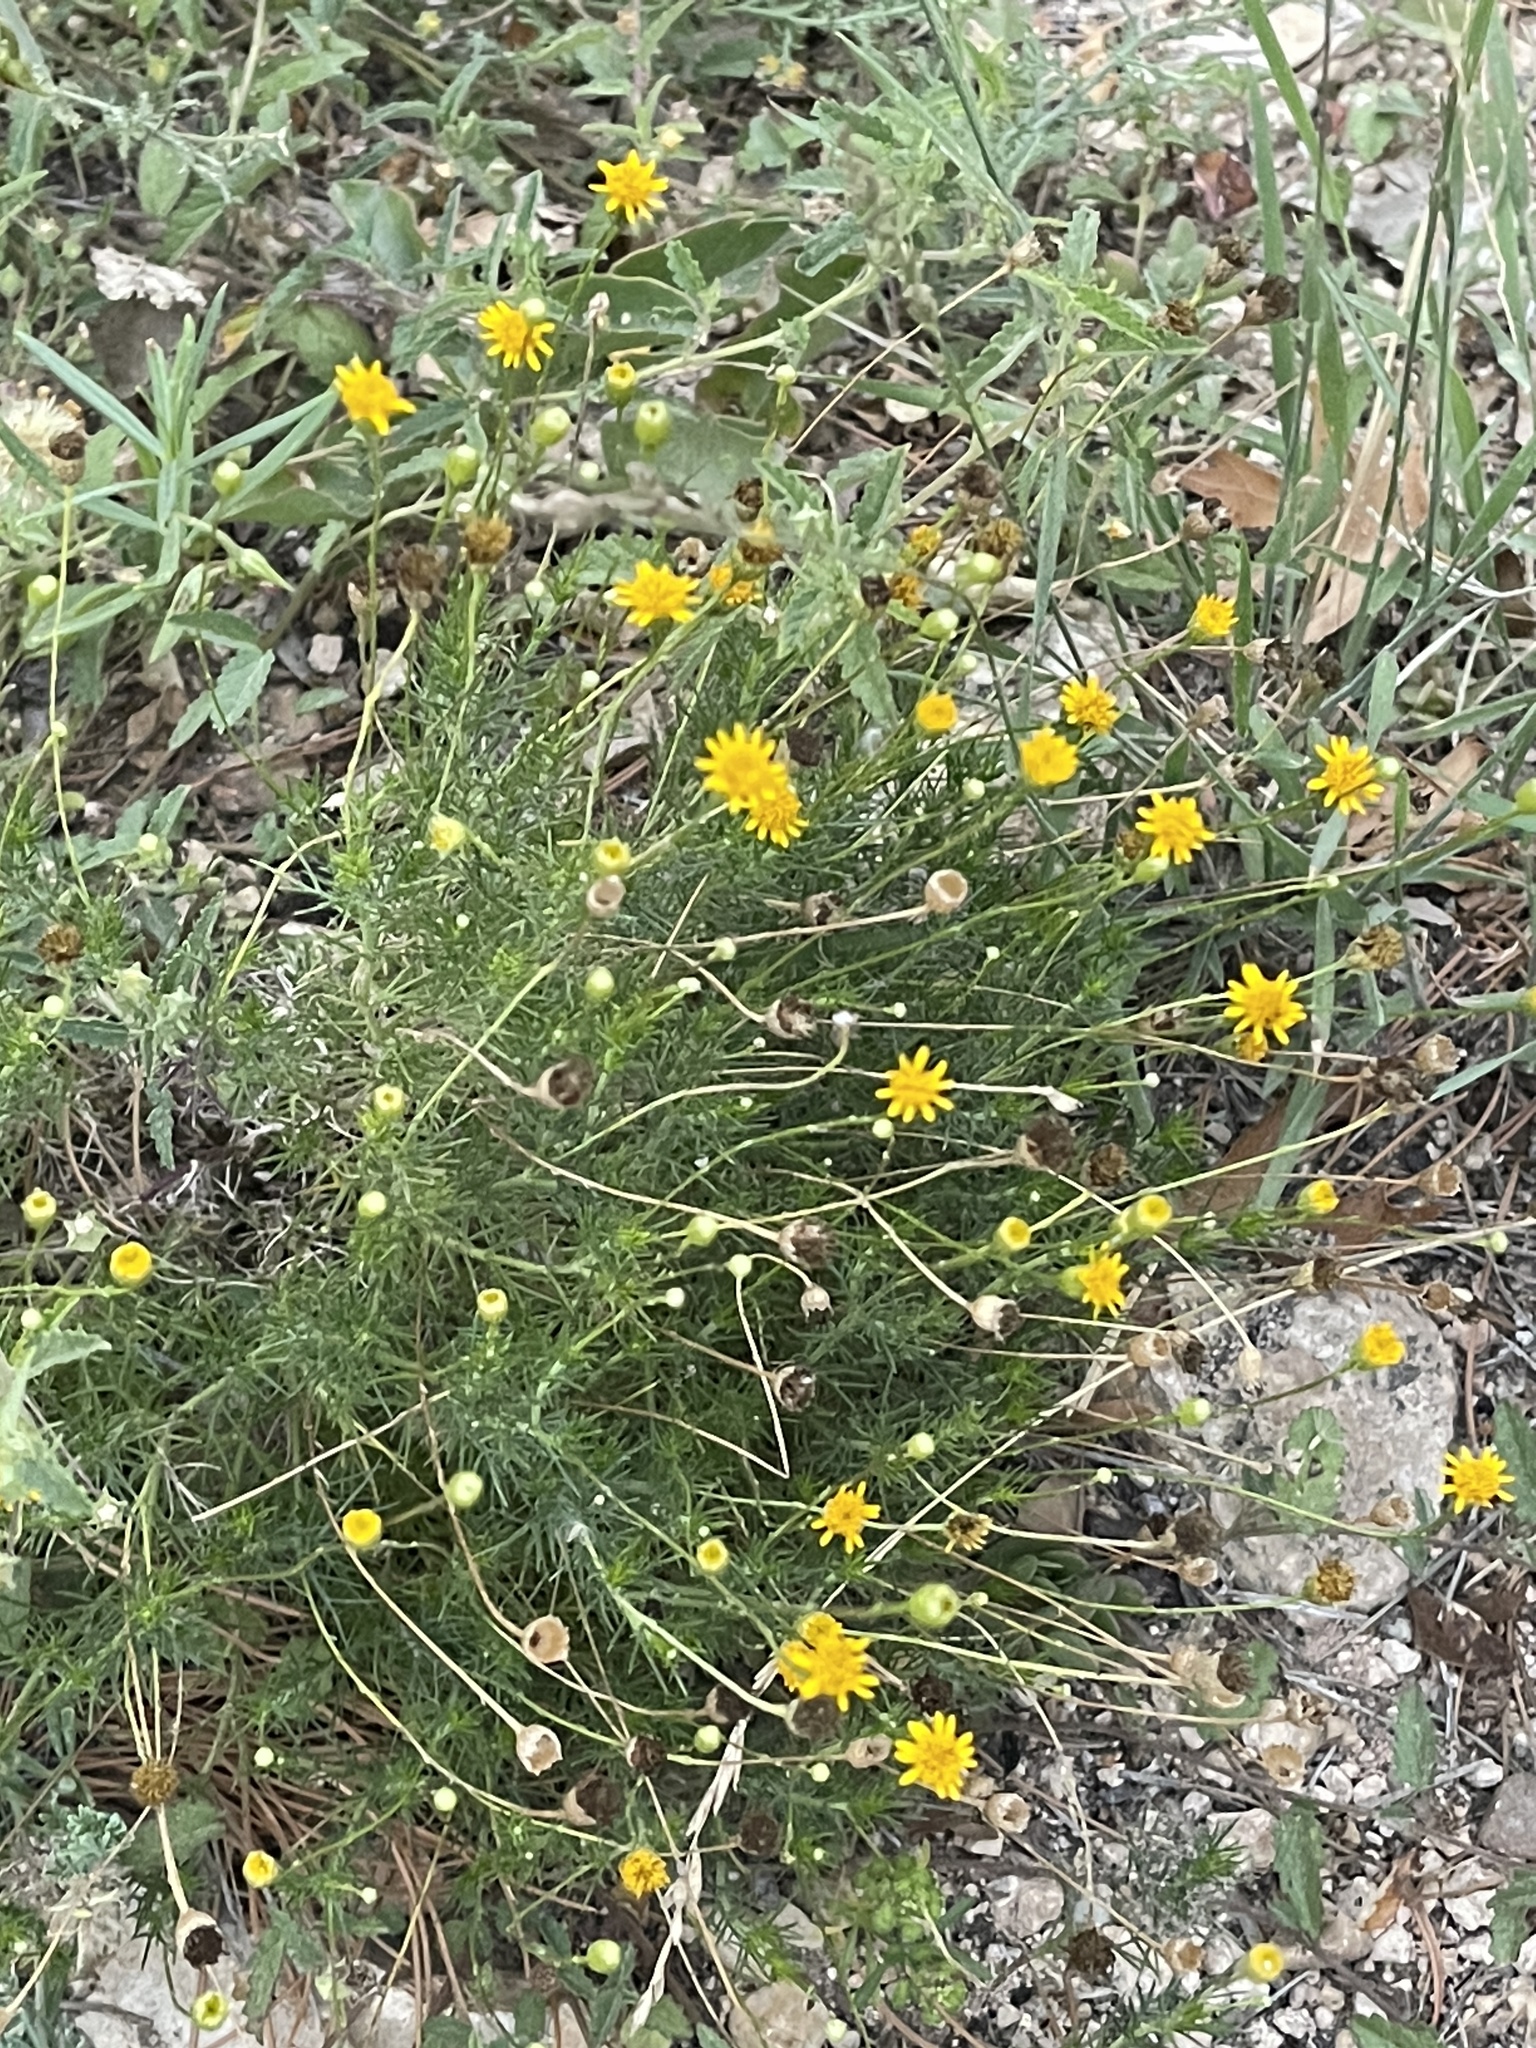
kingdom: Plantae
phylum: Tracheophyta
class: Magnoliopsida
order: Asterales
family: Asteraceae
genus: Thymophylla
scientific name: Thymophylla pentachaeta
